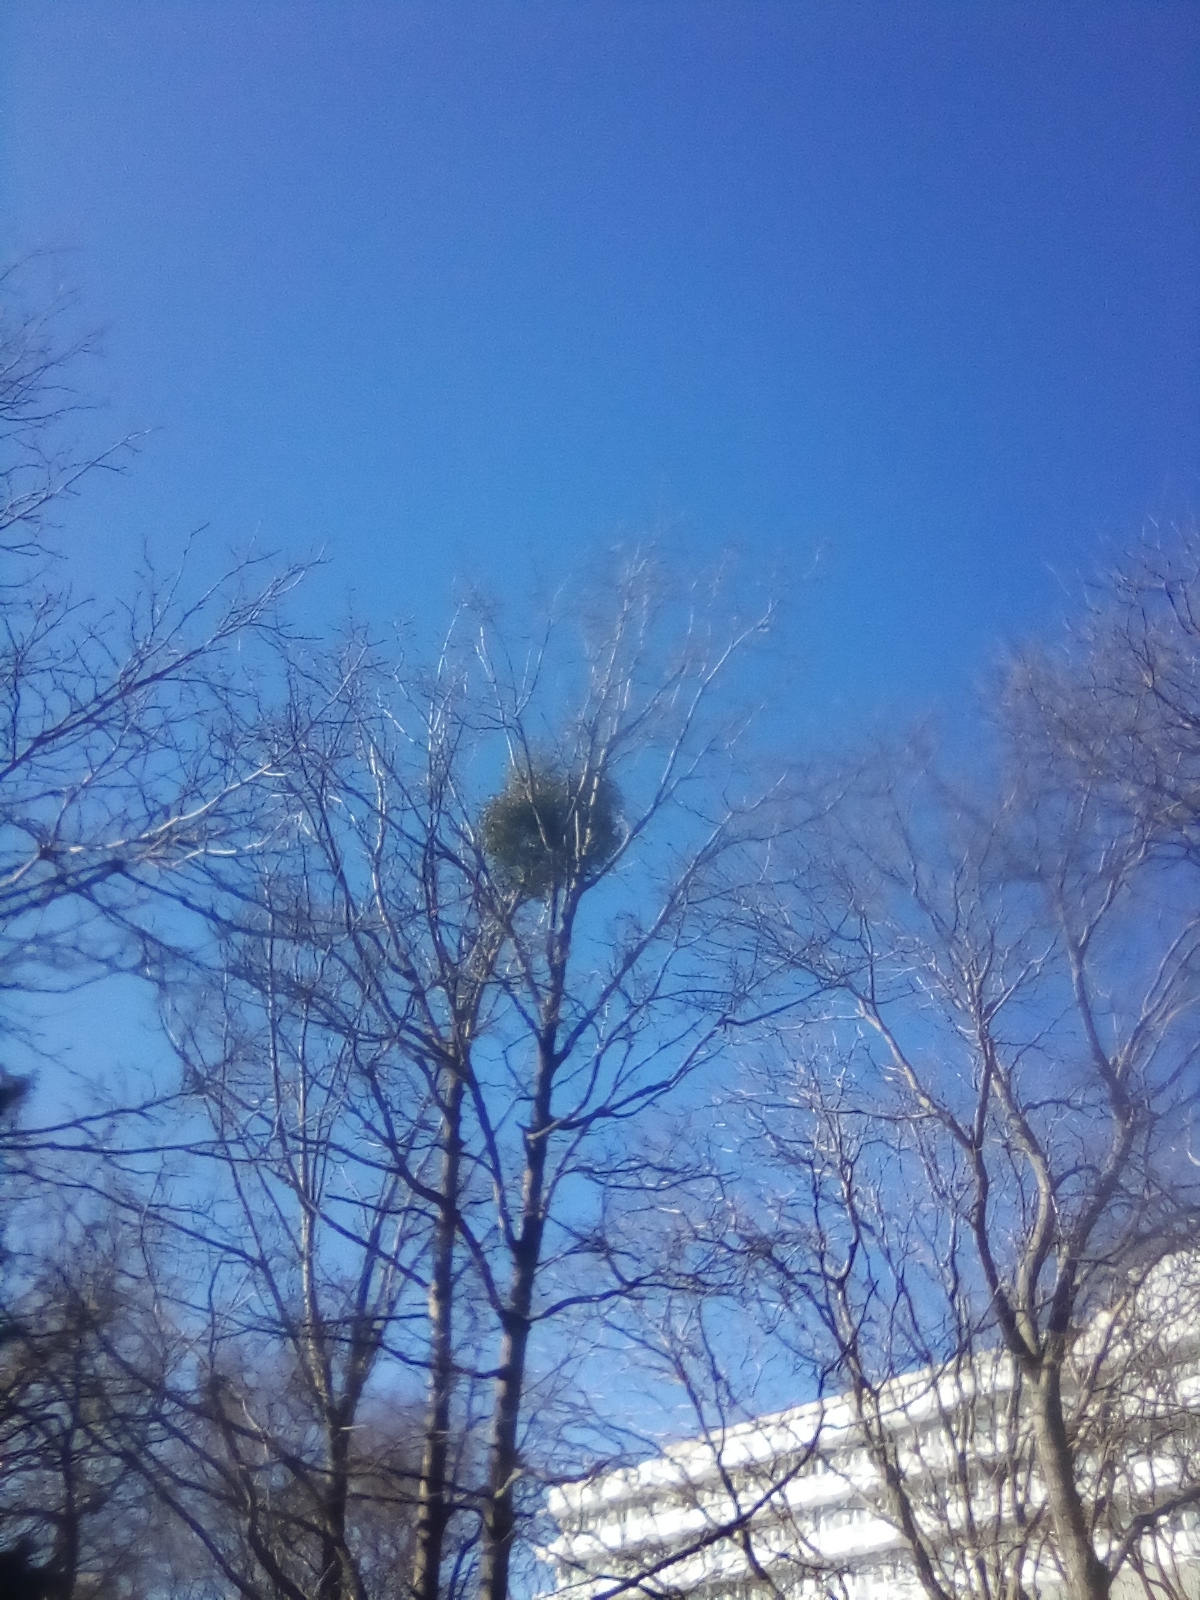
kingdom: Plantae
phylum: Tracheophyta
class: Magnoliopsida
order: Santalales
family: Viscaceae
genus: Viscum
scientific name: Viscum album
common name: Mistletoe
